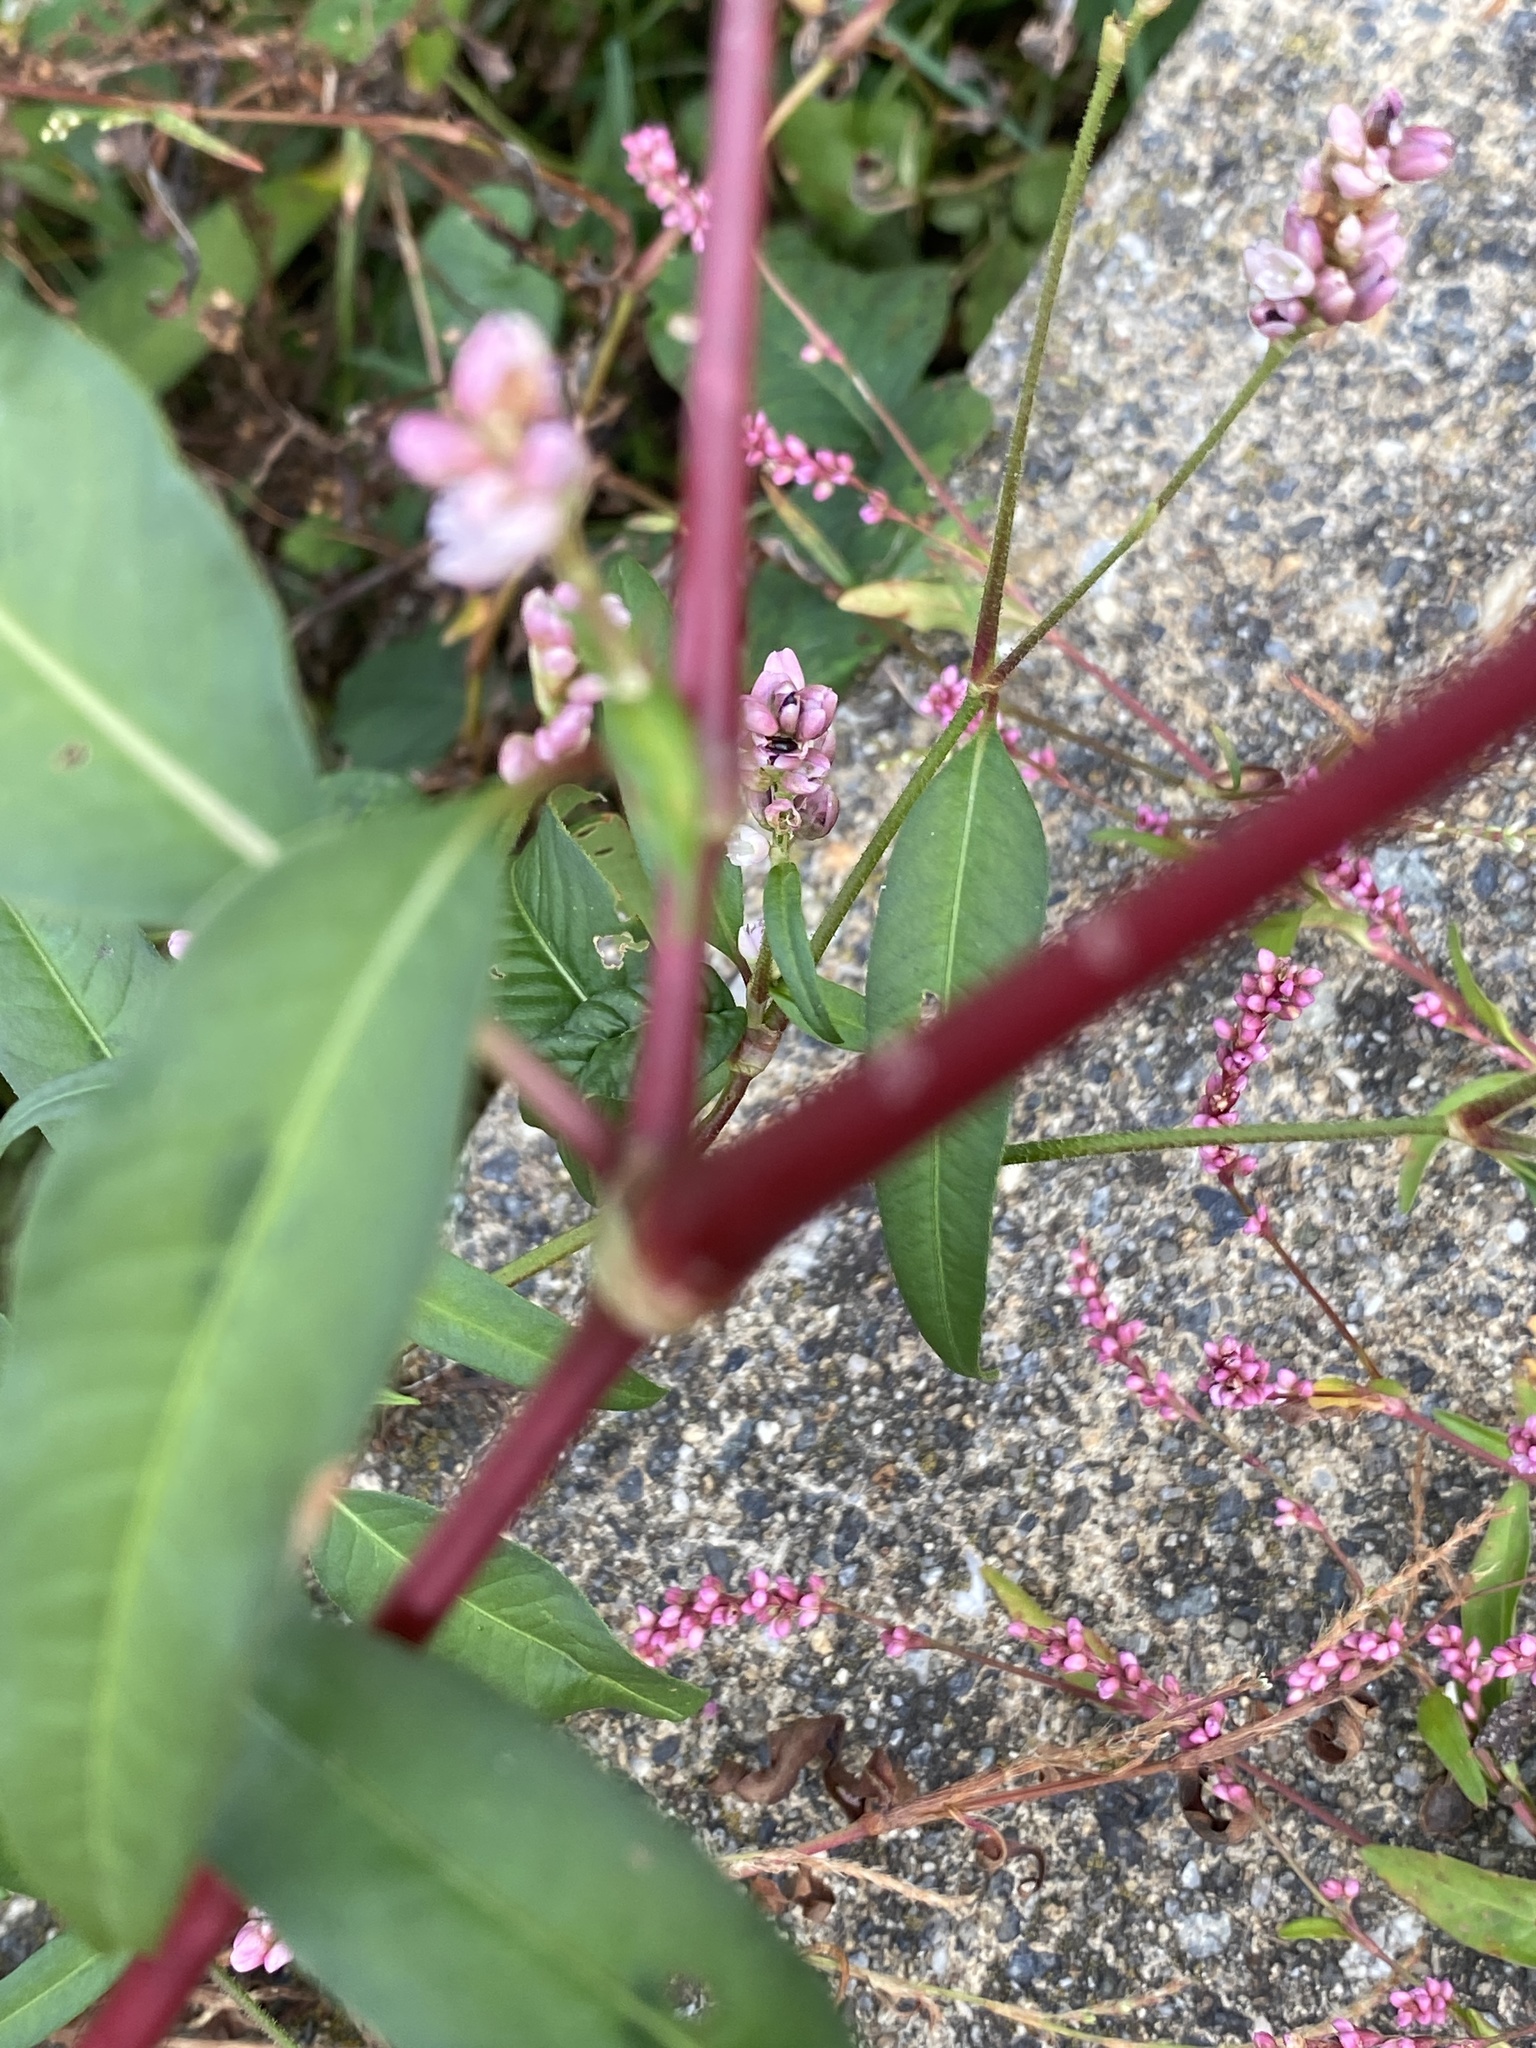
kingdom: Plantae
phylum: Tracheophyta
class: Magnoliopsida
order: Caryophyllales
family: Polygonaceae
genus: Persicaria
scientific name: Persicaria pensylvanica
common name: Pinkweed
